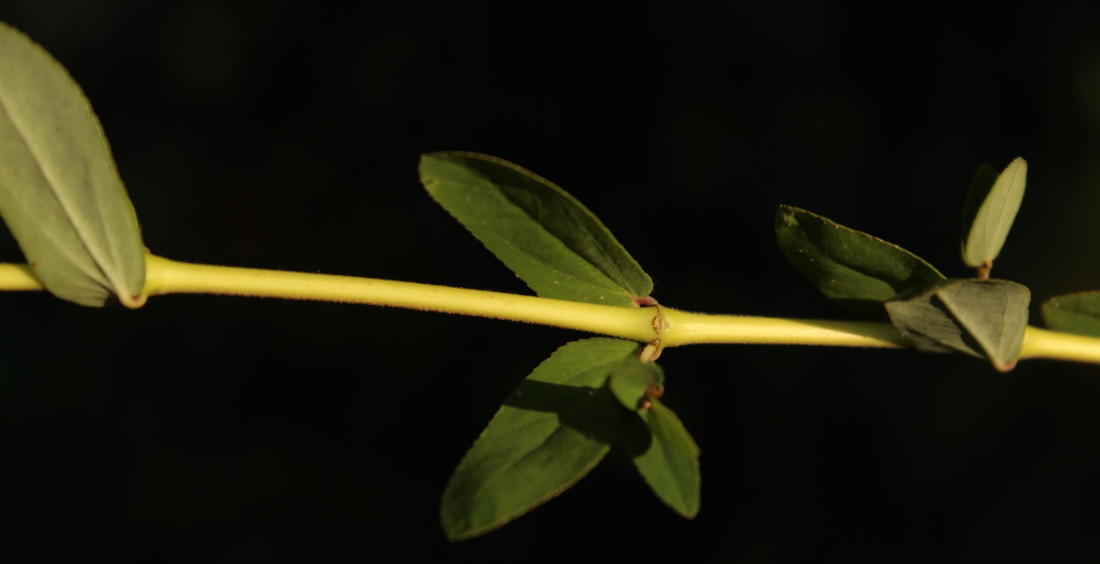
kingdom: Plantae
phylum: Tracheophyta
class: Magnoliopsida
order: Malpighiales
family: Euphorbiaceae
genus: Euphorbia
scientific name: Euphorbia hyssopifolia
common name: Hyssopleaf sandmat
